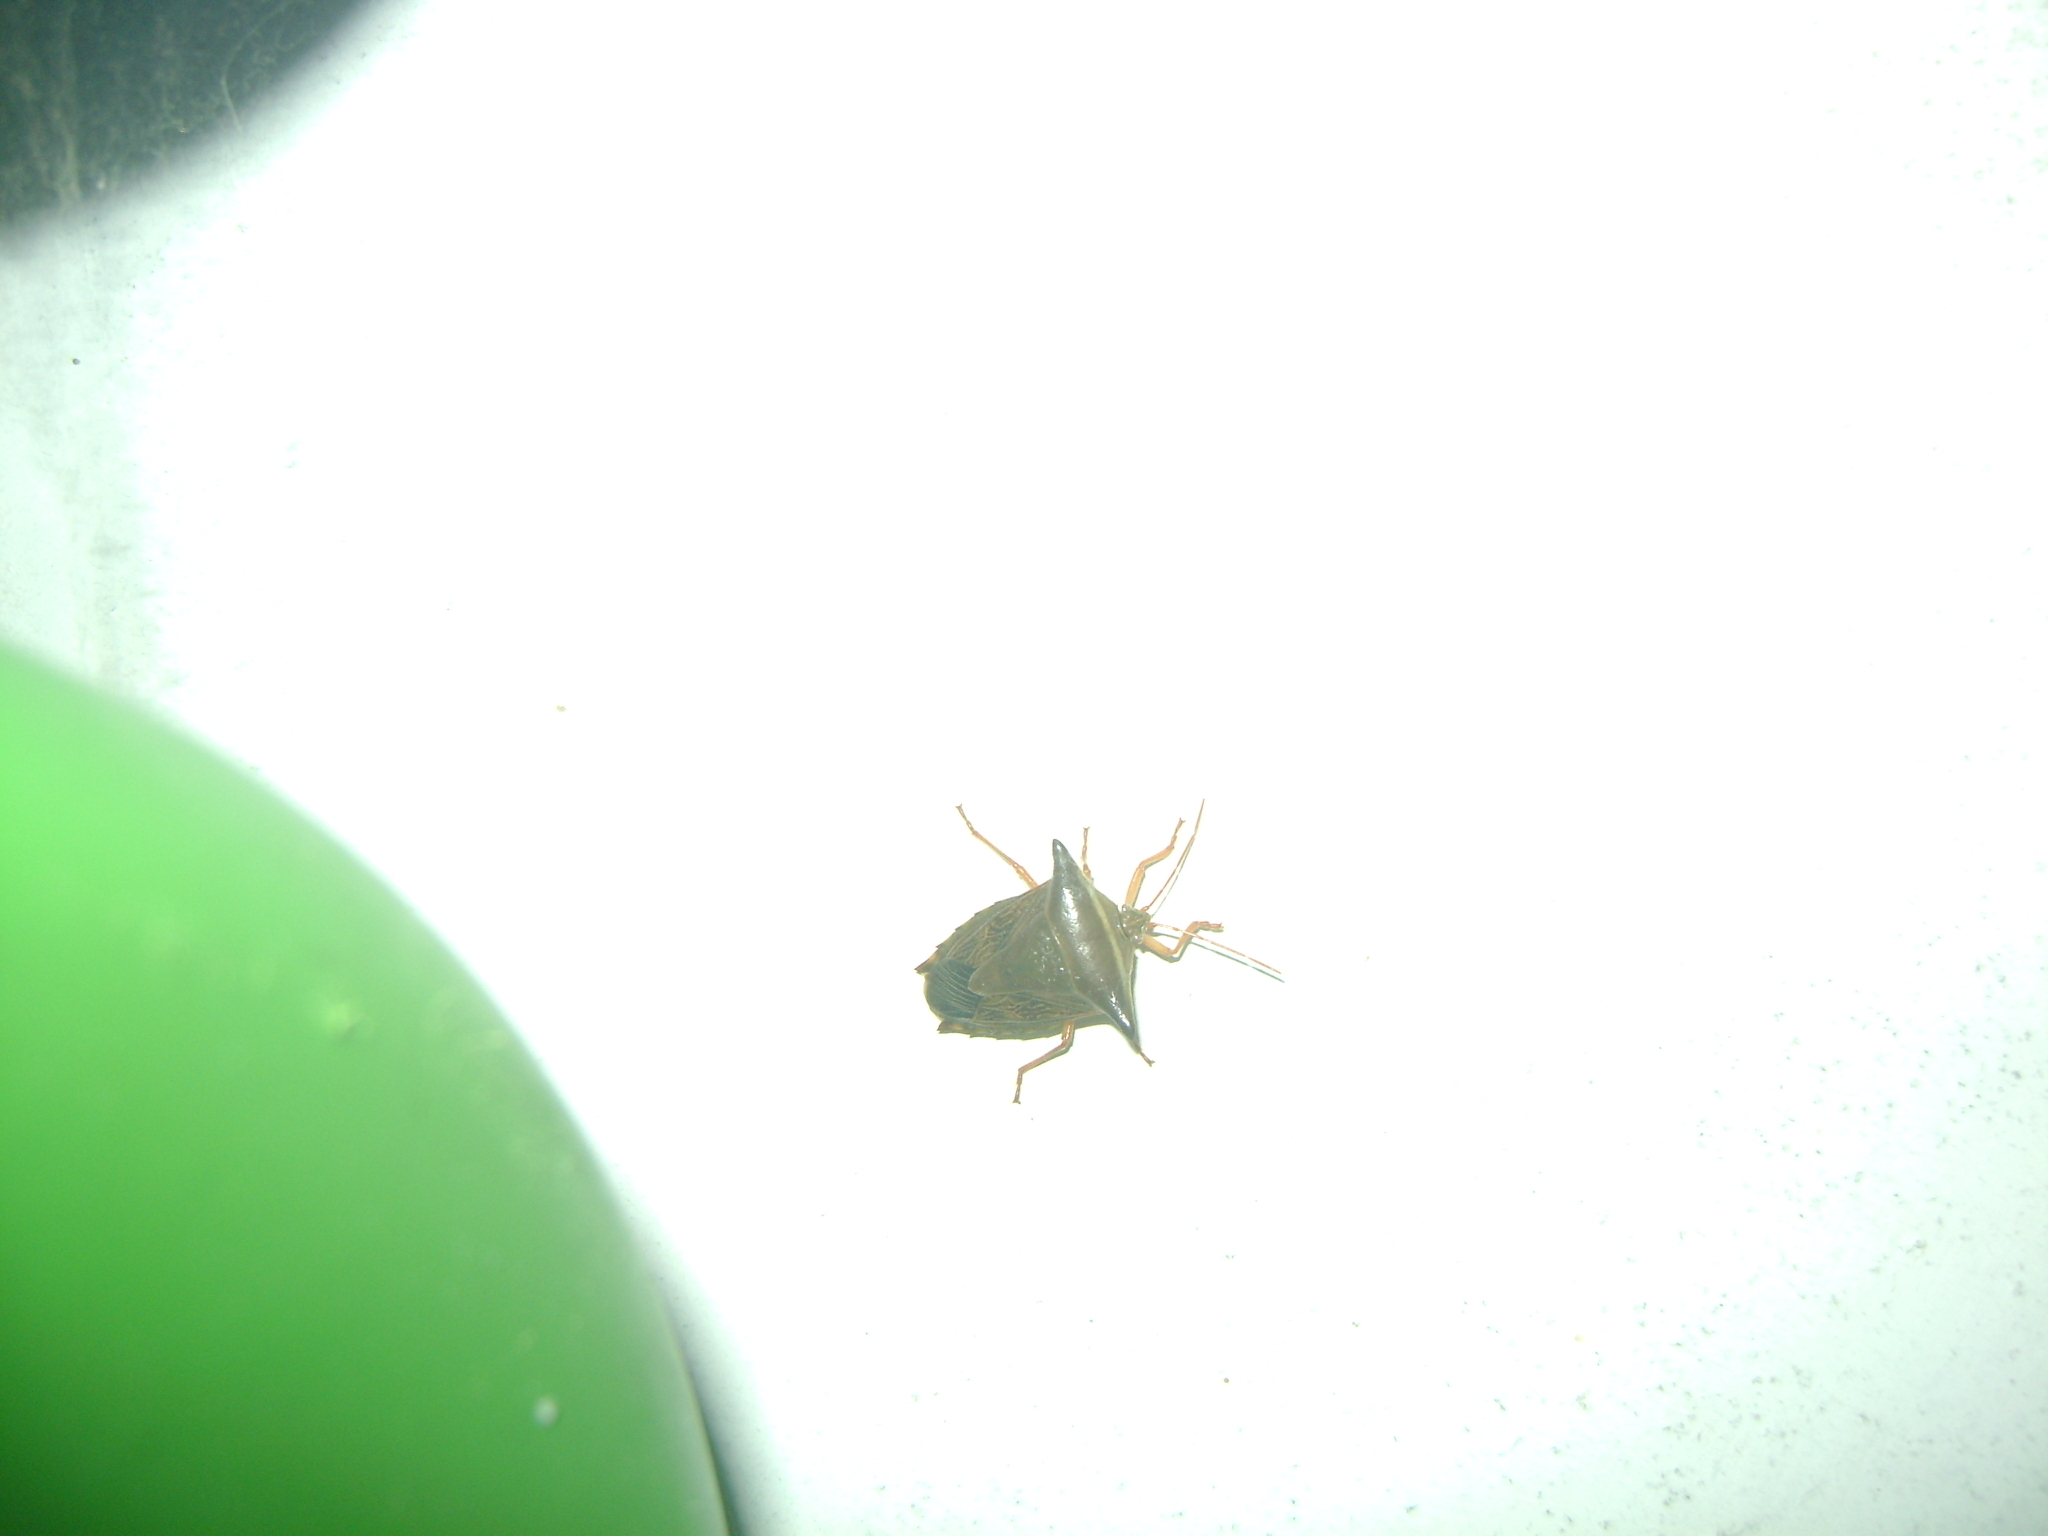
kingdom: Animalia
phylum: Arthropoda
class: Insecta
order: Hemiptera
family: Pentatomidae
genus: Edessa
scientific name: Edessa reticulata
